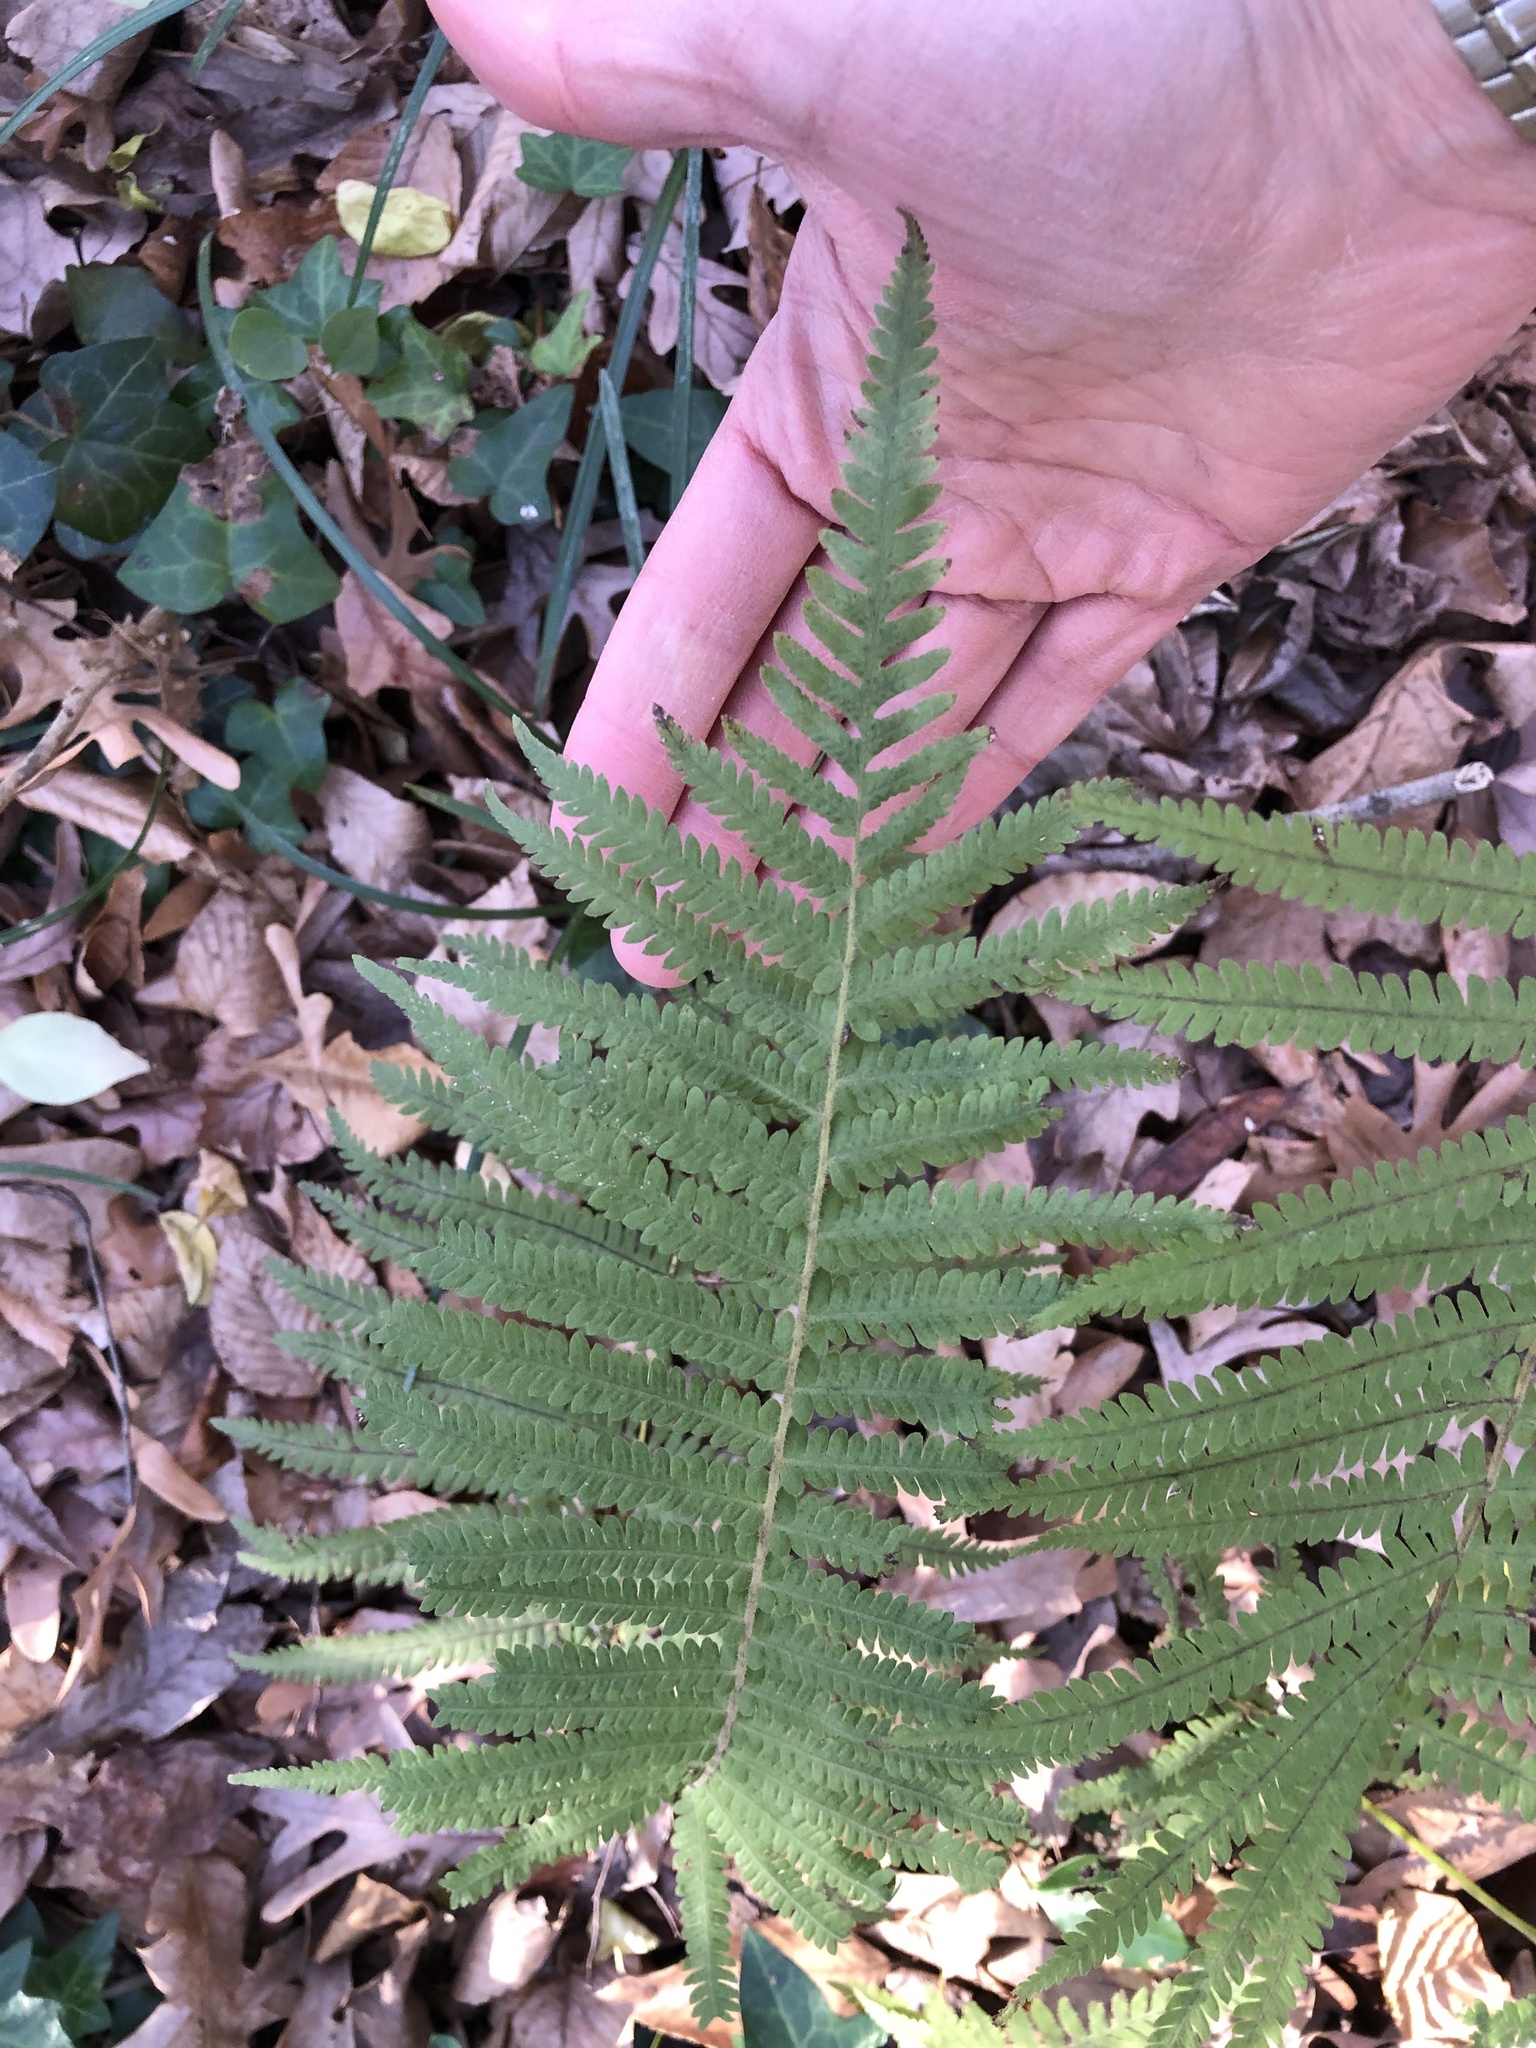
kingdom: Plantae
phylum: Tracheophyta
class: Polypodiopsida
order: Polypodiales
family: Thelypteridaceae
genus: Pelazoneuron
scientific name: Pelazoneuron kunthii
